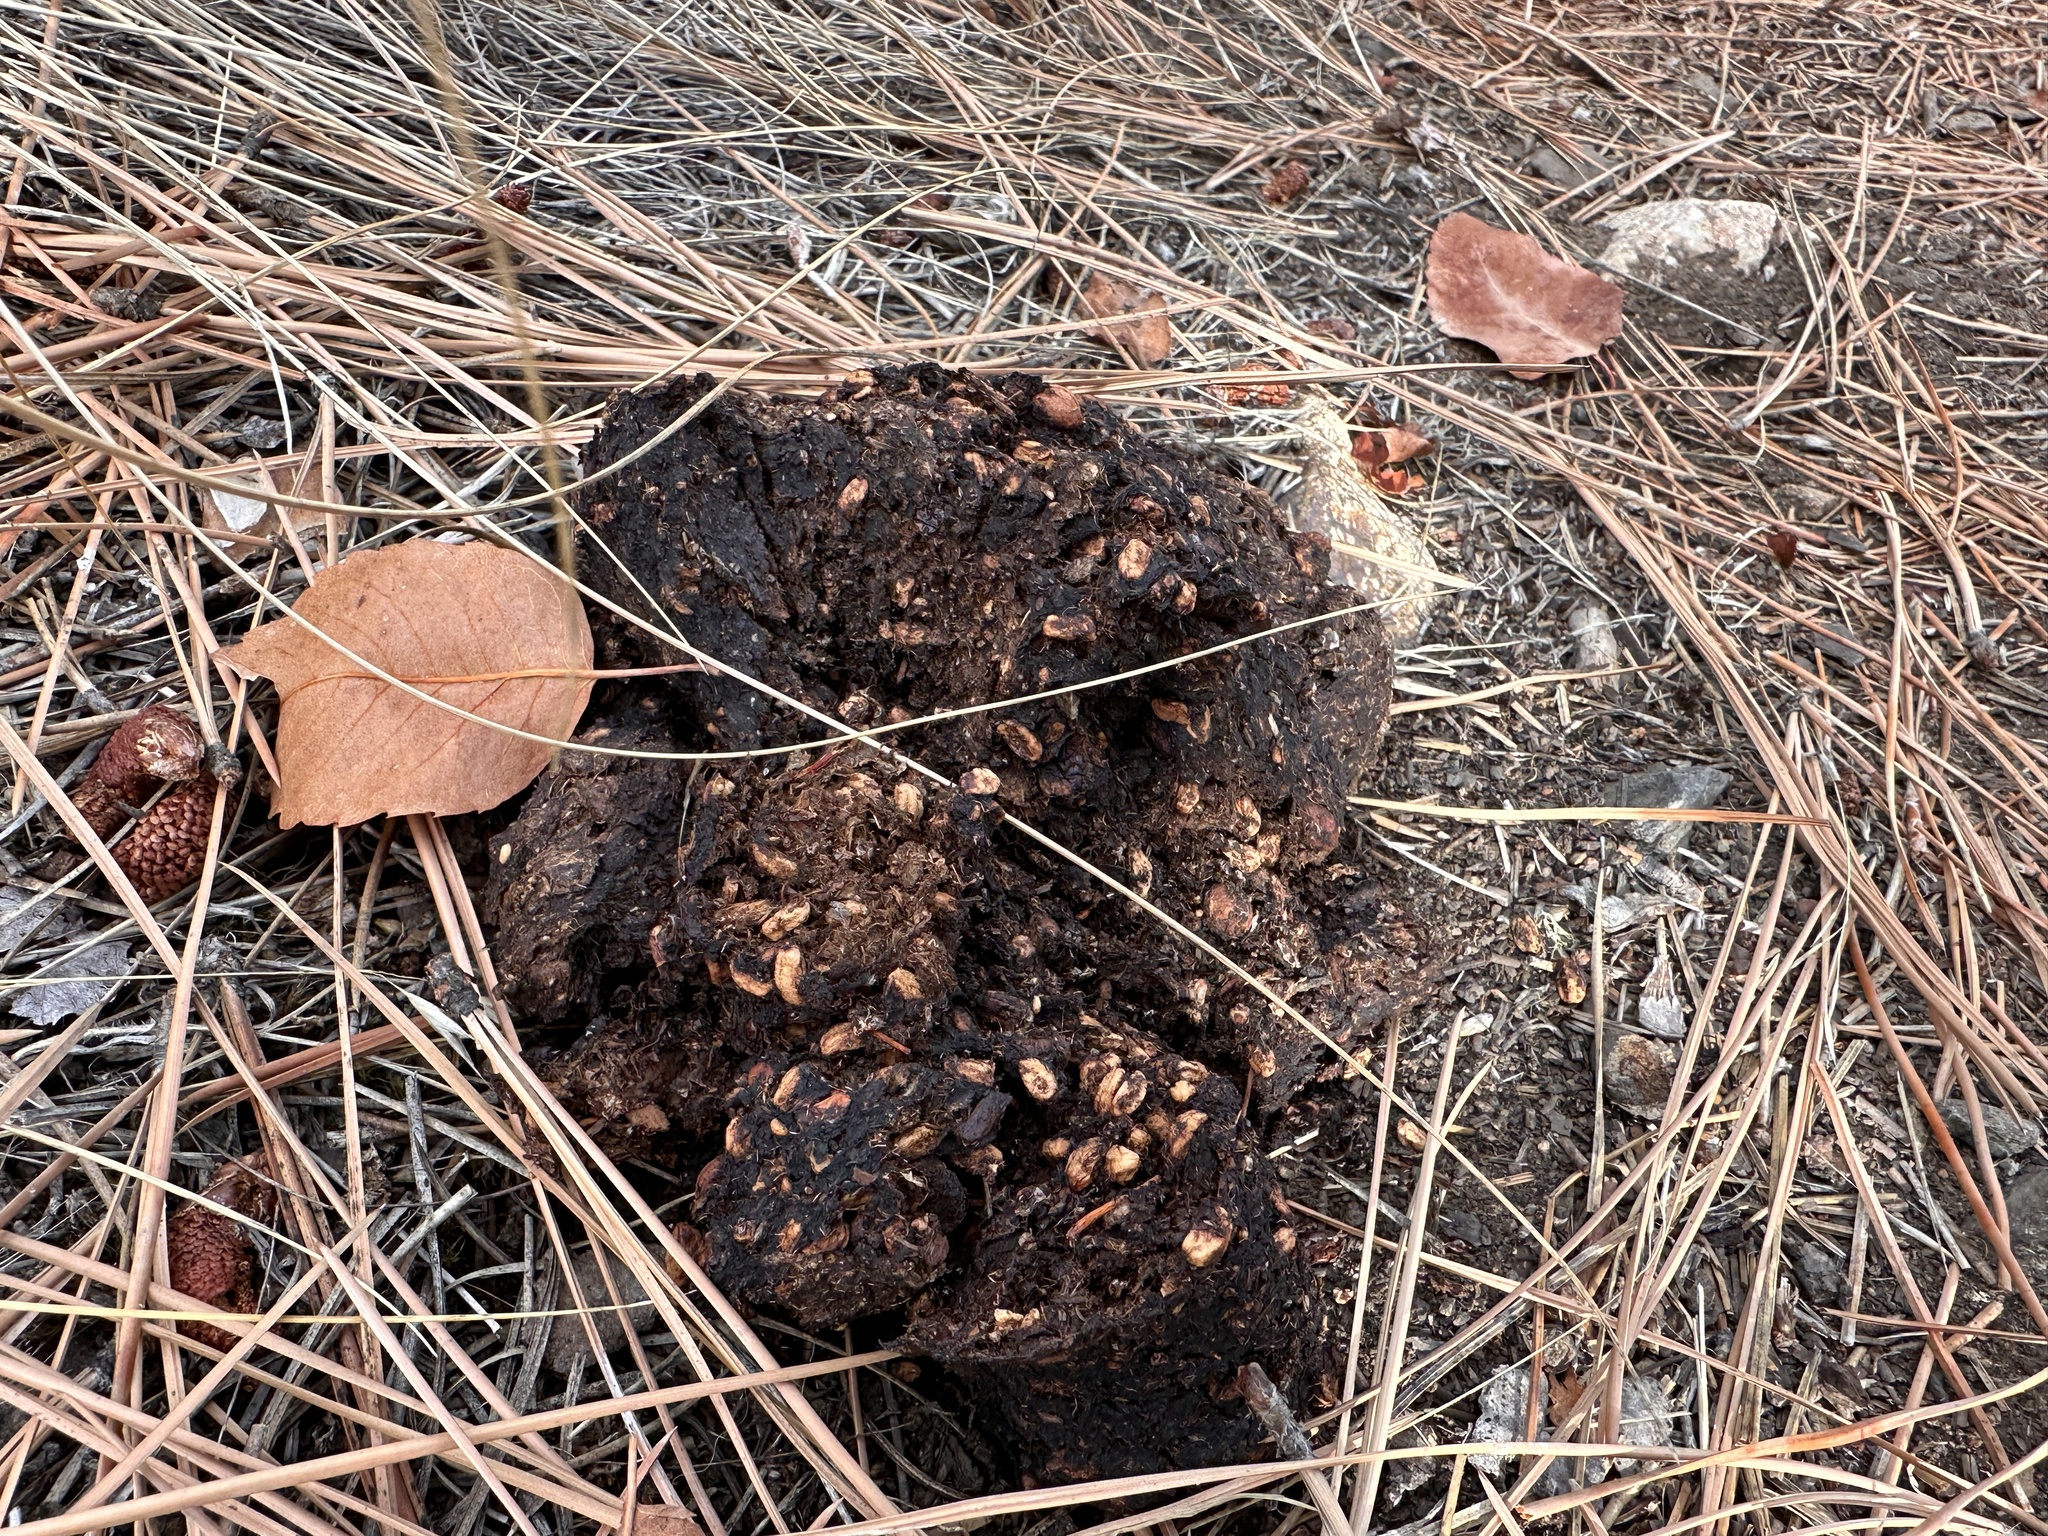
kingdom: Animalia
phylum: Chordata
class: Mammalia
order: Carnivora
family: Ursidae
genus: Ursus
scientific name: Ursus americanus
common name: American black bear
